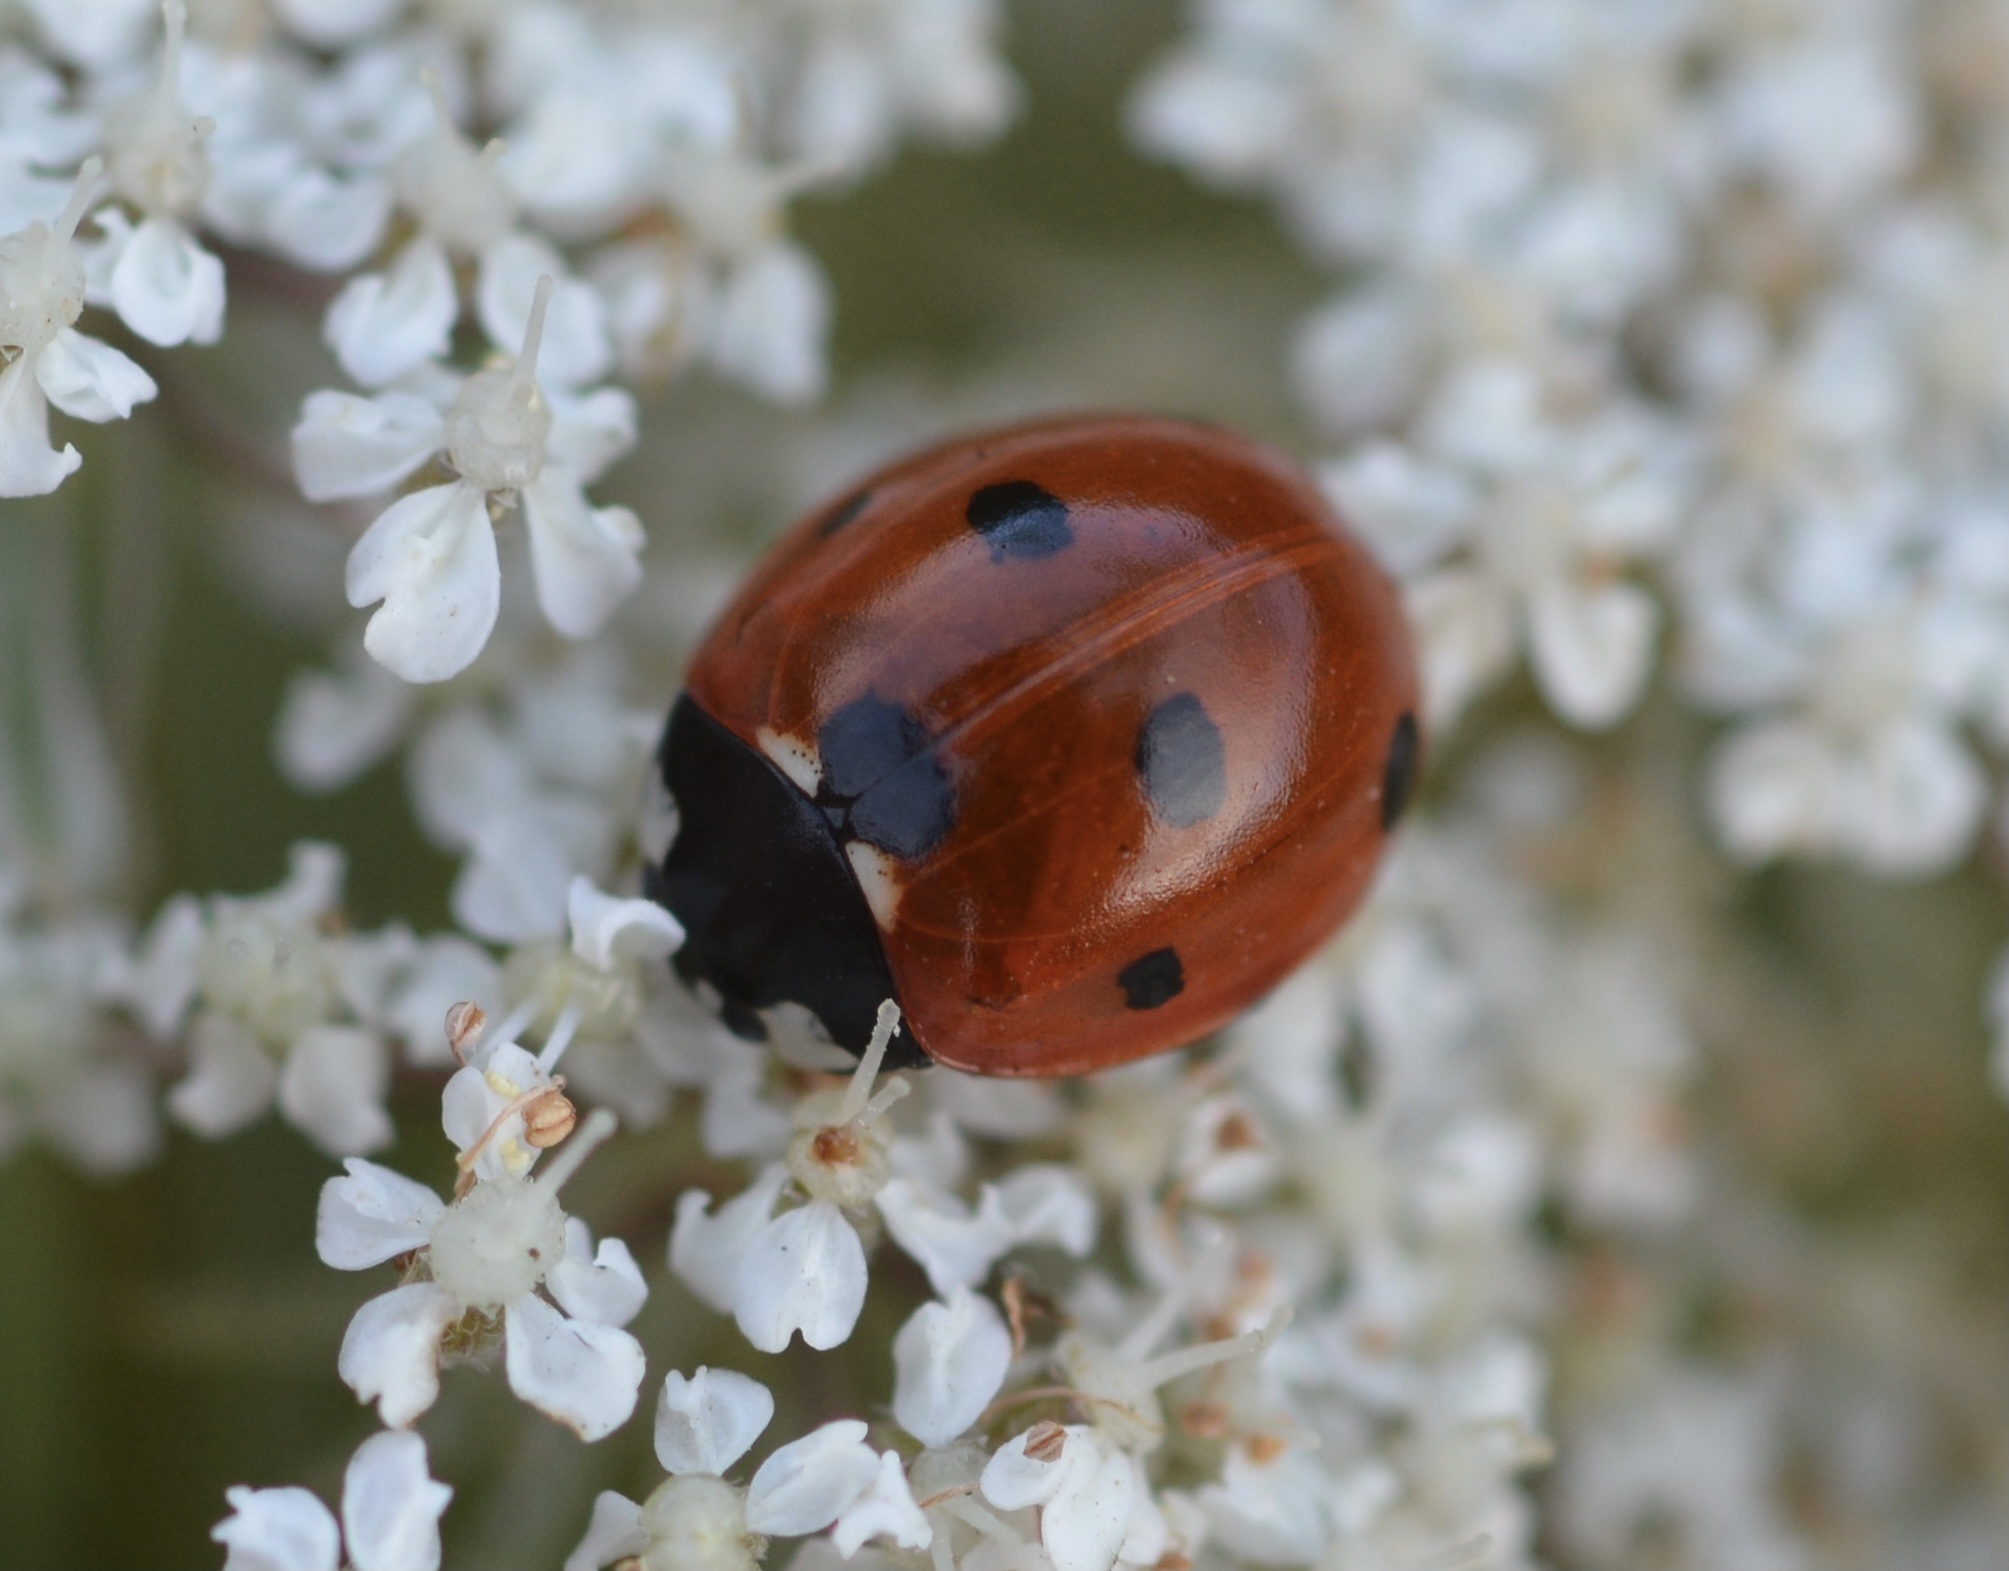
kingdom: Animalia
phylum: Arthropoda
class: Insecta
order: Coleoptera
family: Coccinellidae
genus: Coccinella
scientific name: Coccinella septempunctata
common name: Sevenspotted lady beetle
